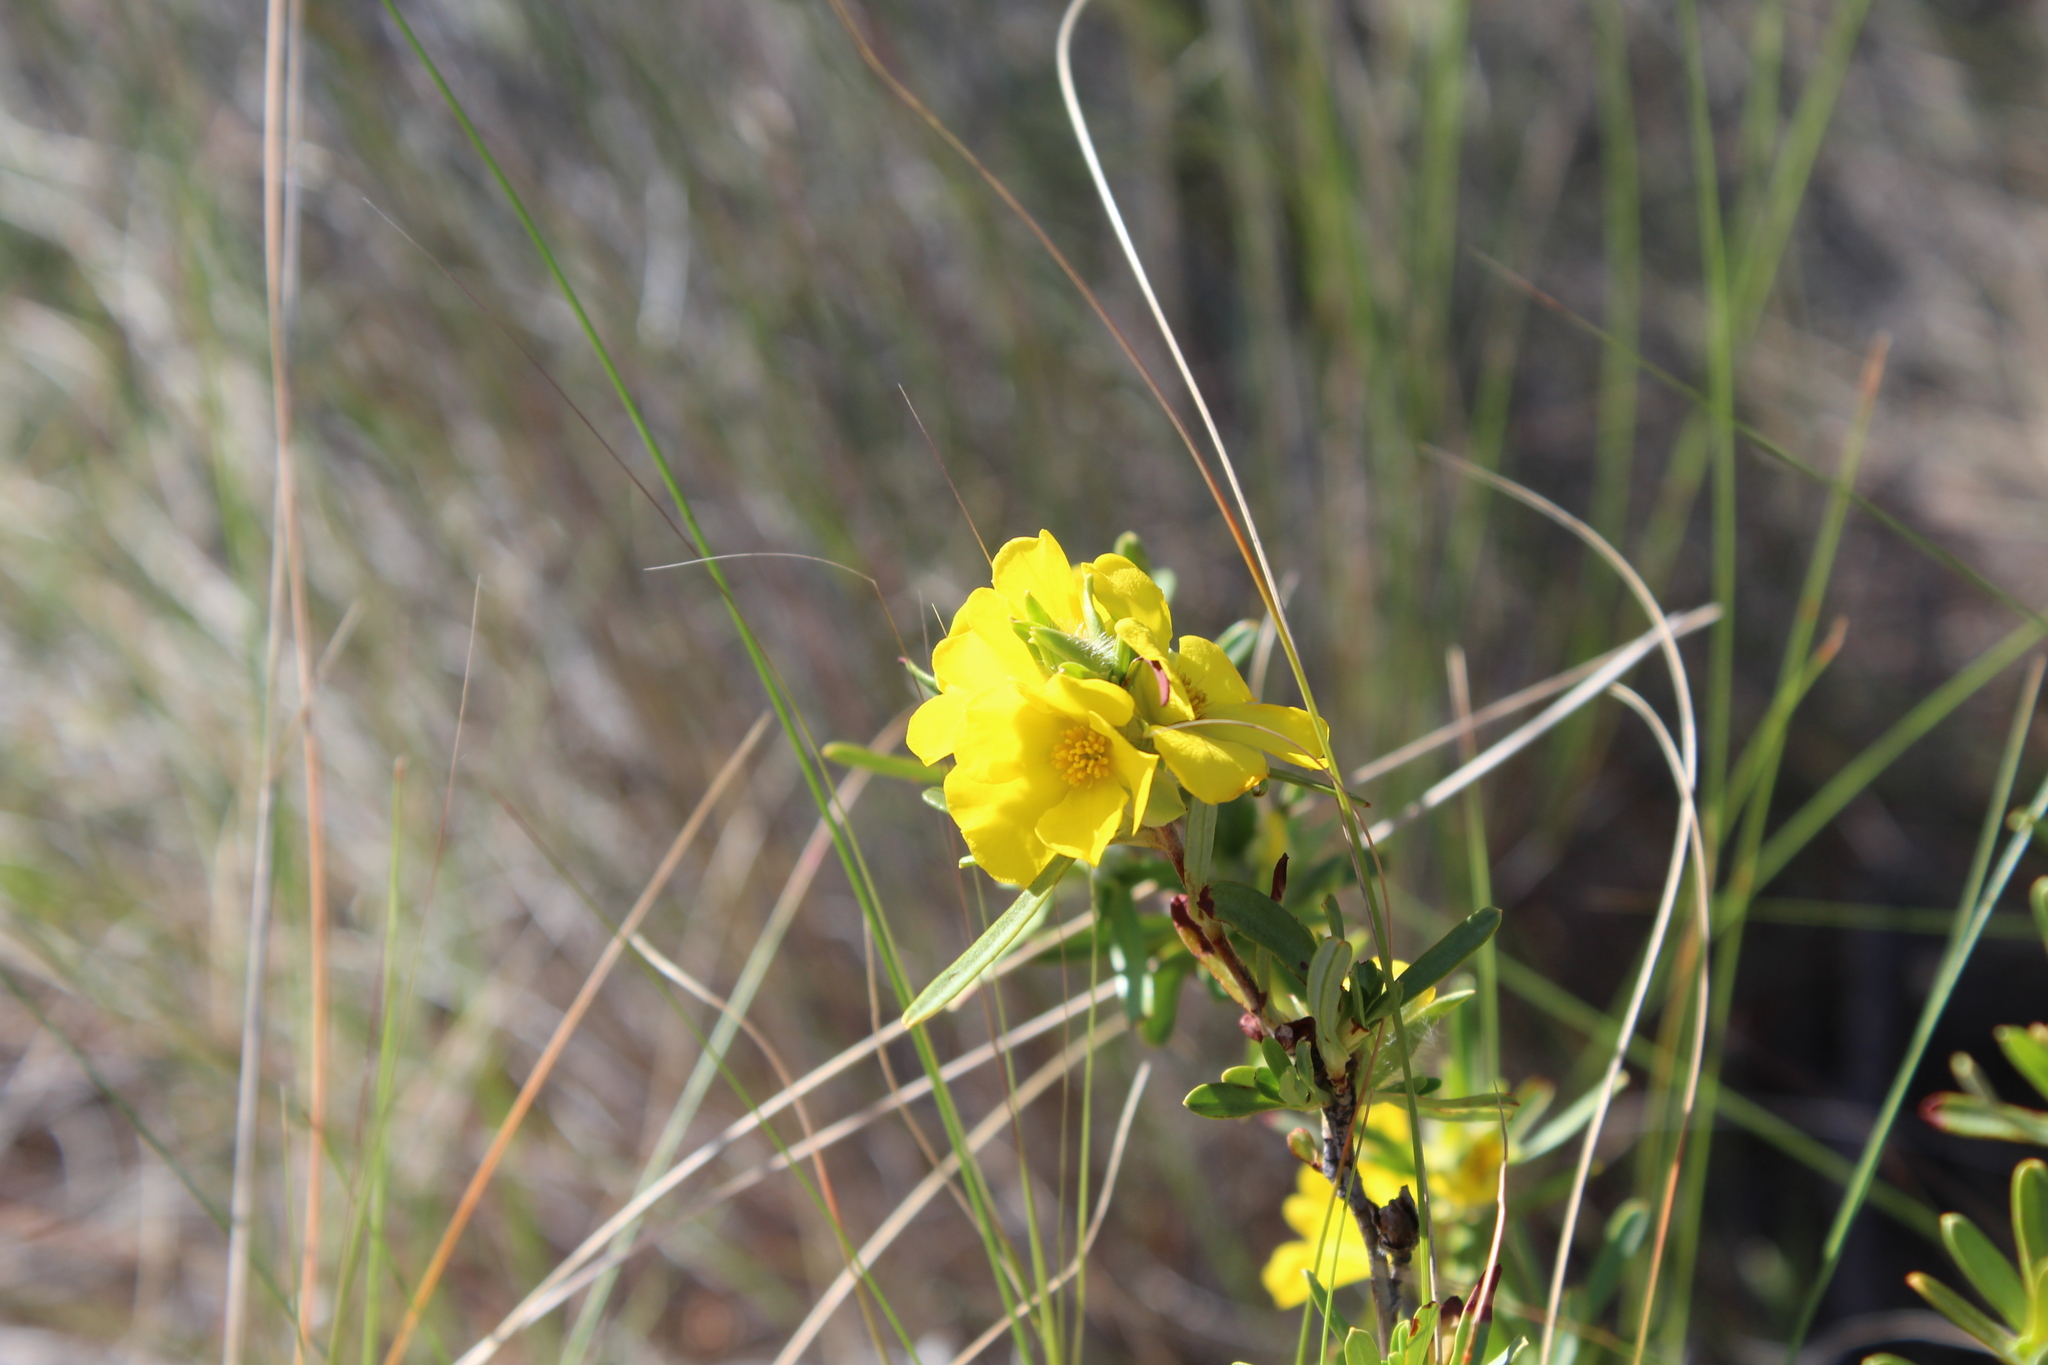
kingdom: Plantae
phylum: Tracheophyta
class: Magnoliopsida
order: Dilleniales
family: Dilleniaceae
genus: Hibbertia
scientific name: Hibbertia glomerosa
